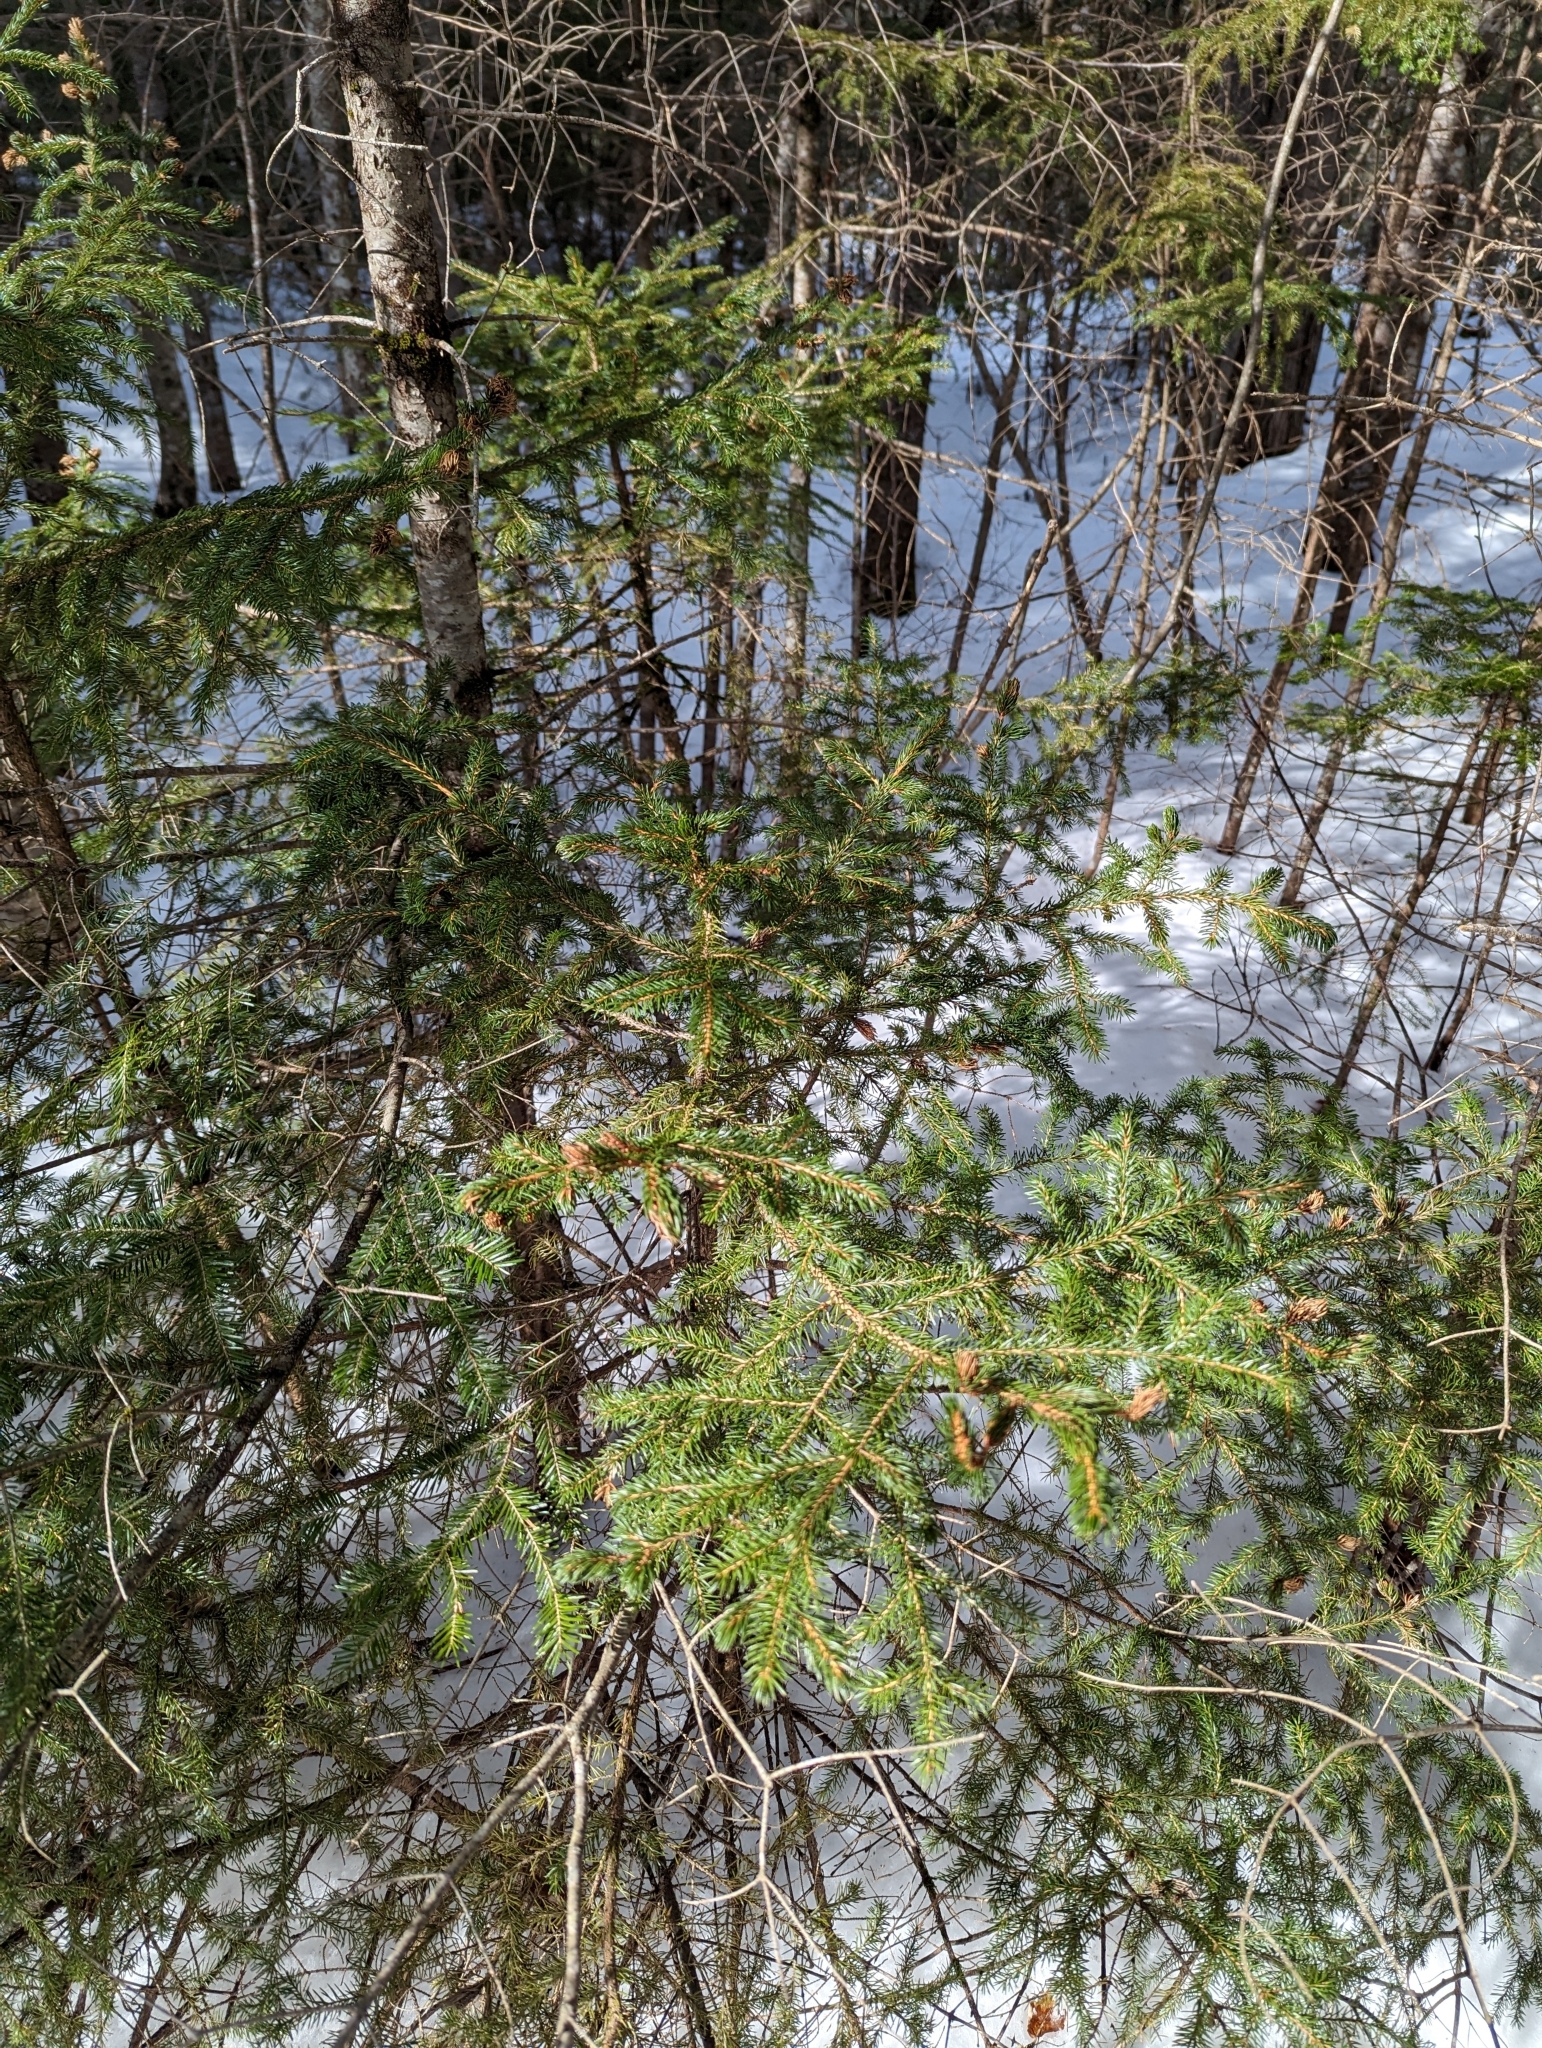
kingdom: Plantae
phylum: Tracheophyta
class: Pinopsida
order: Pinales
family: Pinaceae
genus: Picea
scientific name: Picea rubens
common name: Red spruce
